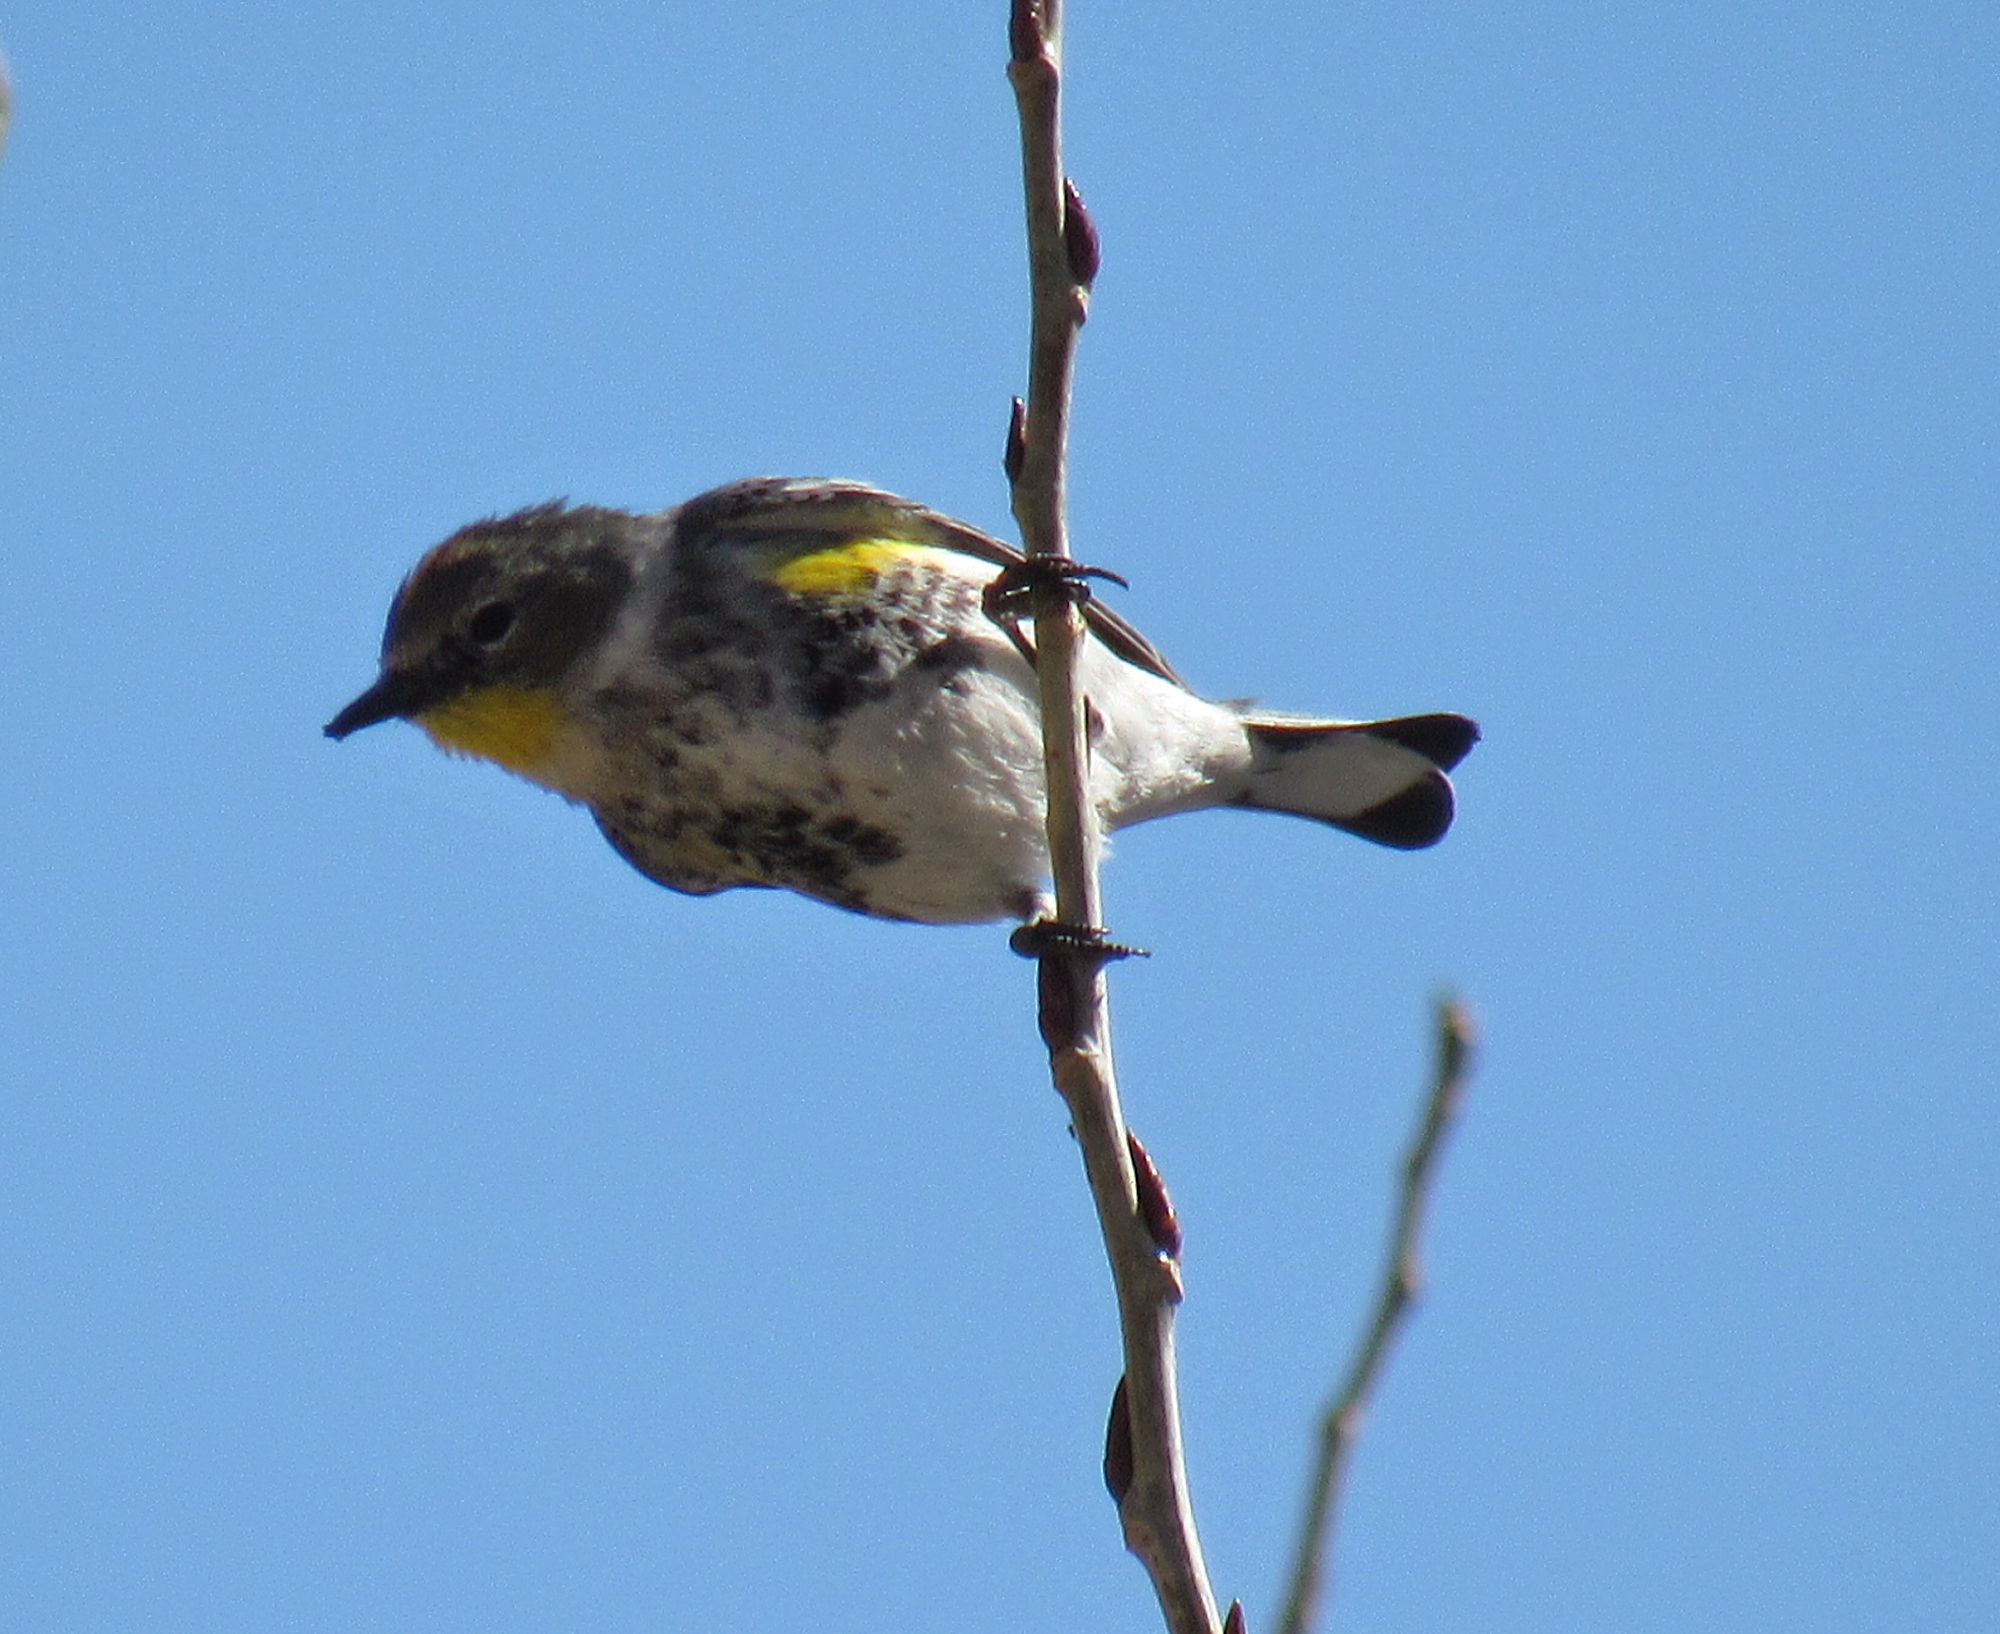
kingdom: Animalia
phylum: Chordata
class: Aves
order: Passeriformes
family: Parulidae
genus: Setophaga
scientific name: Setophaga coronata
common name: Myrtle warbler
